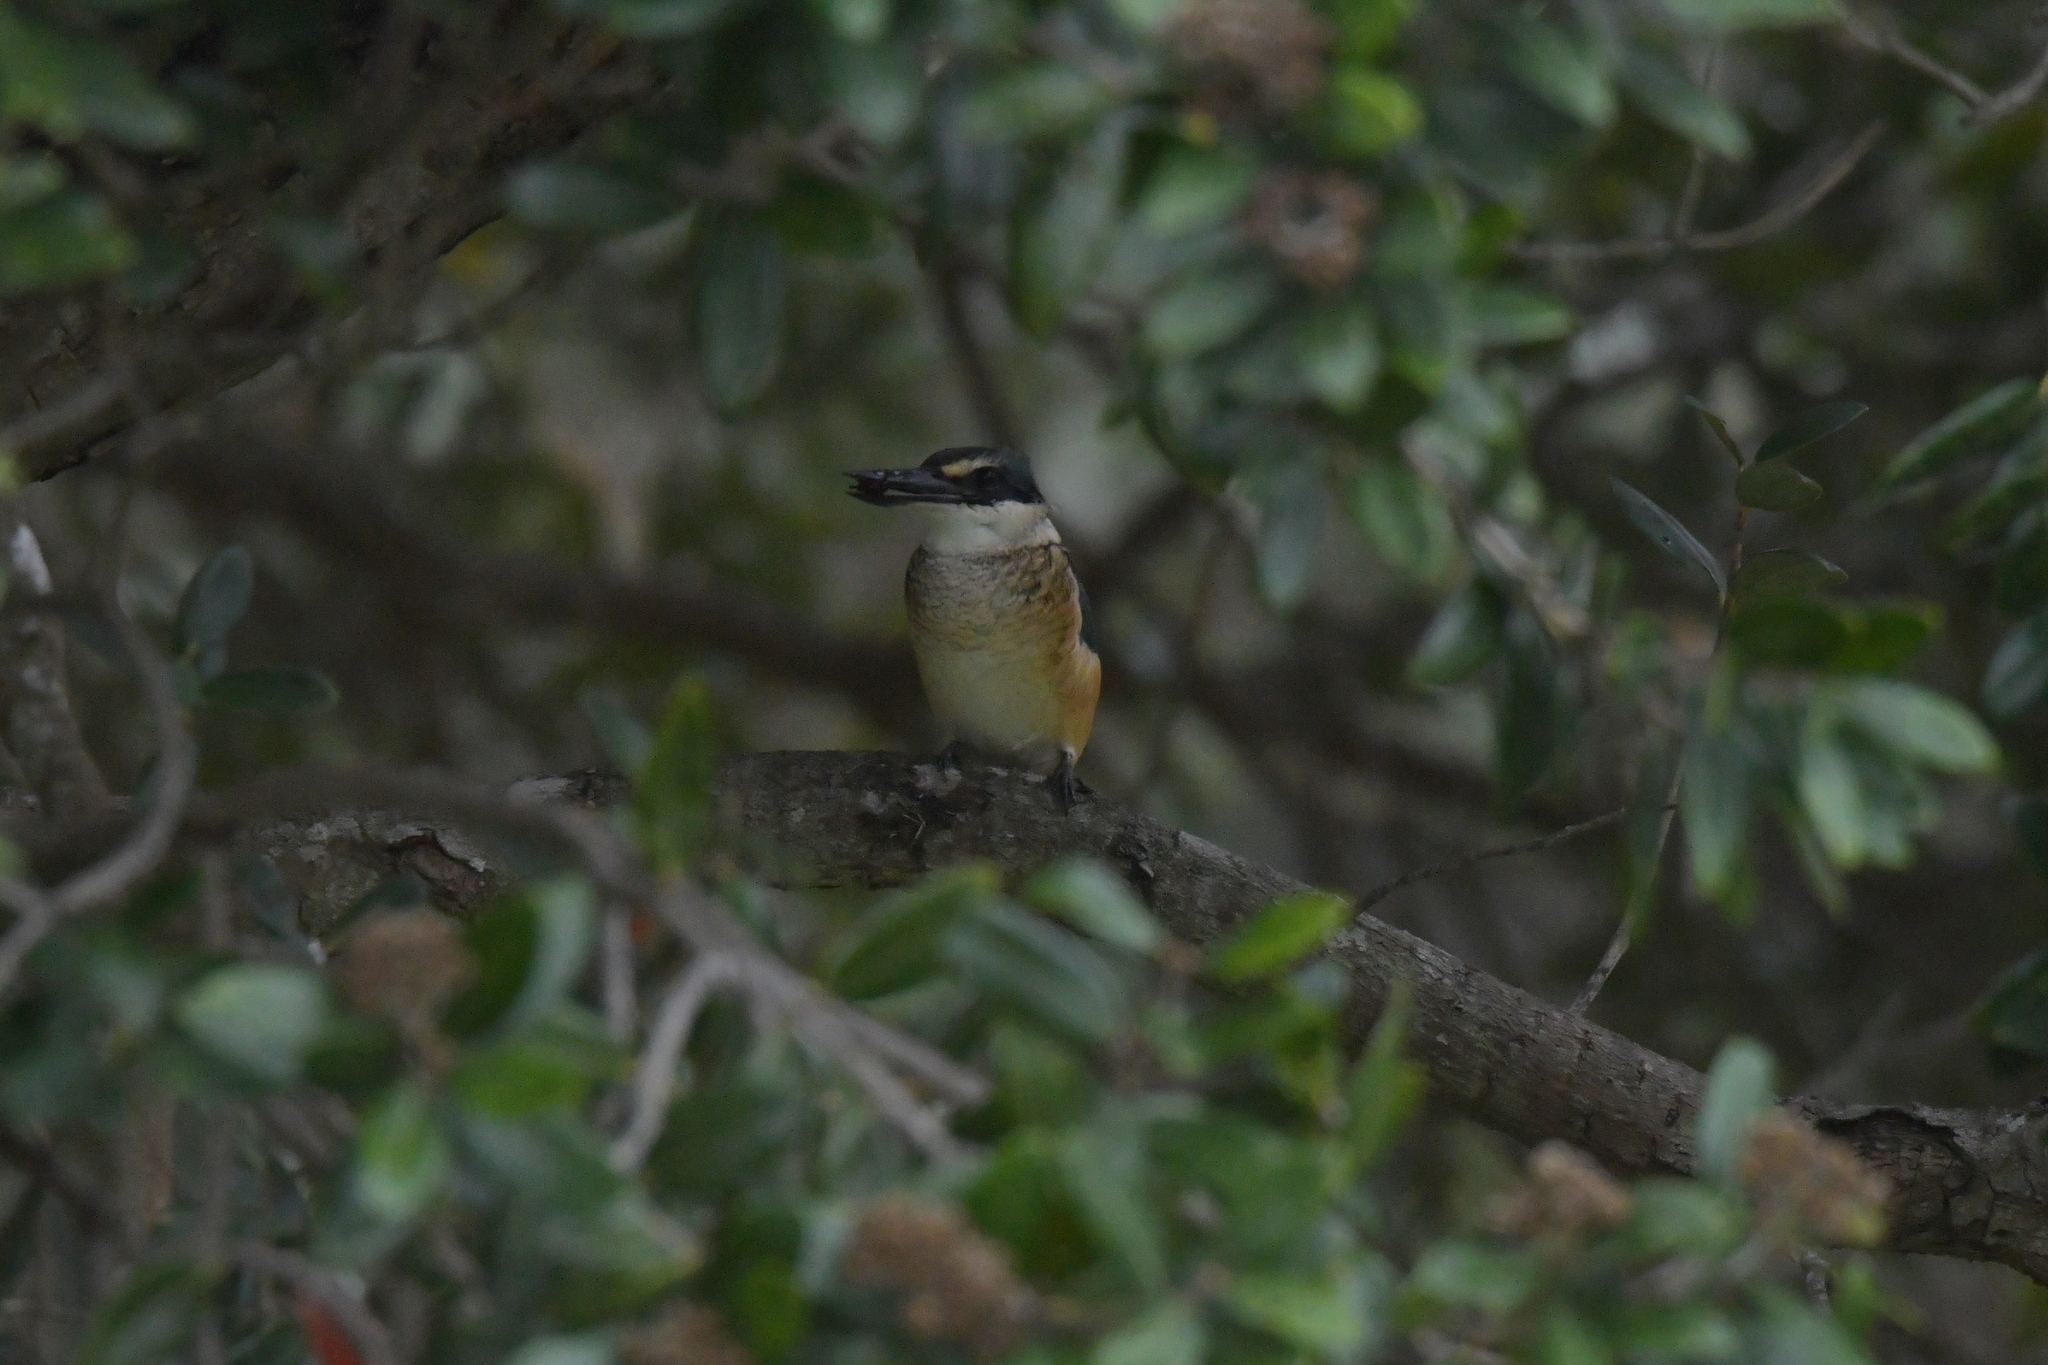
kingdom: Animalia
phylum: Chordata
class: Aves
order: Coraciiformes
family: Alcedinidae
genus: Todiramphus
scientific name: Todiramphus sanctus
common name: Sacred kingfisher
